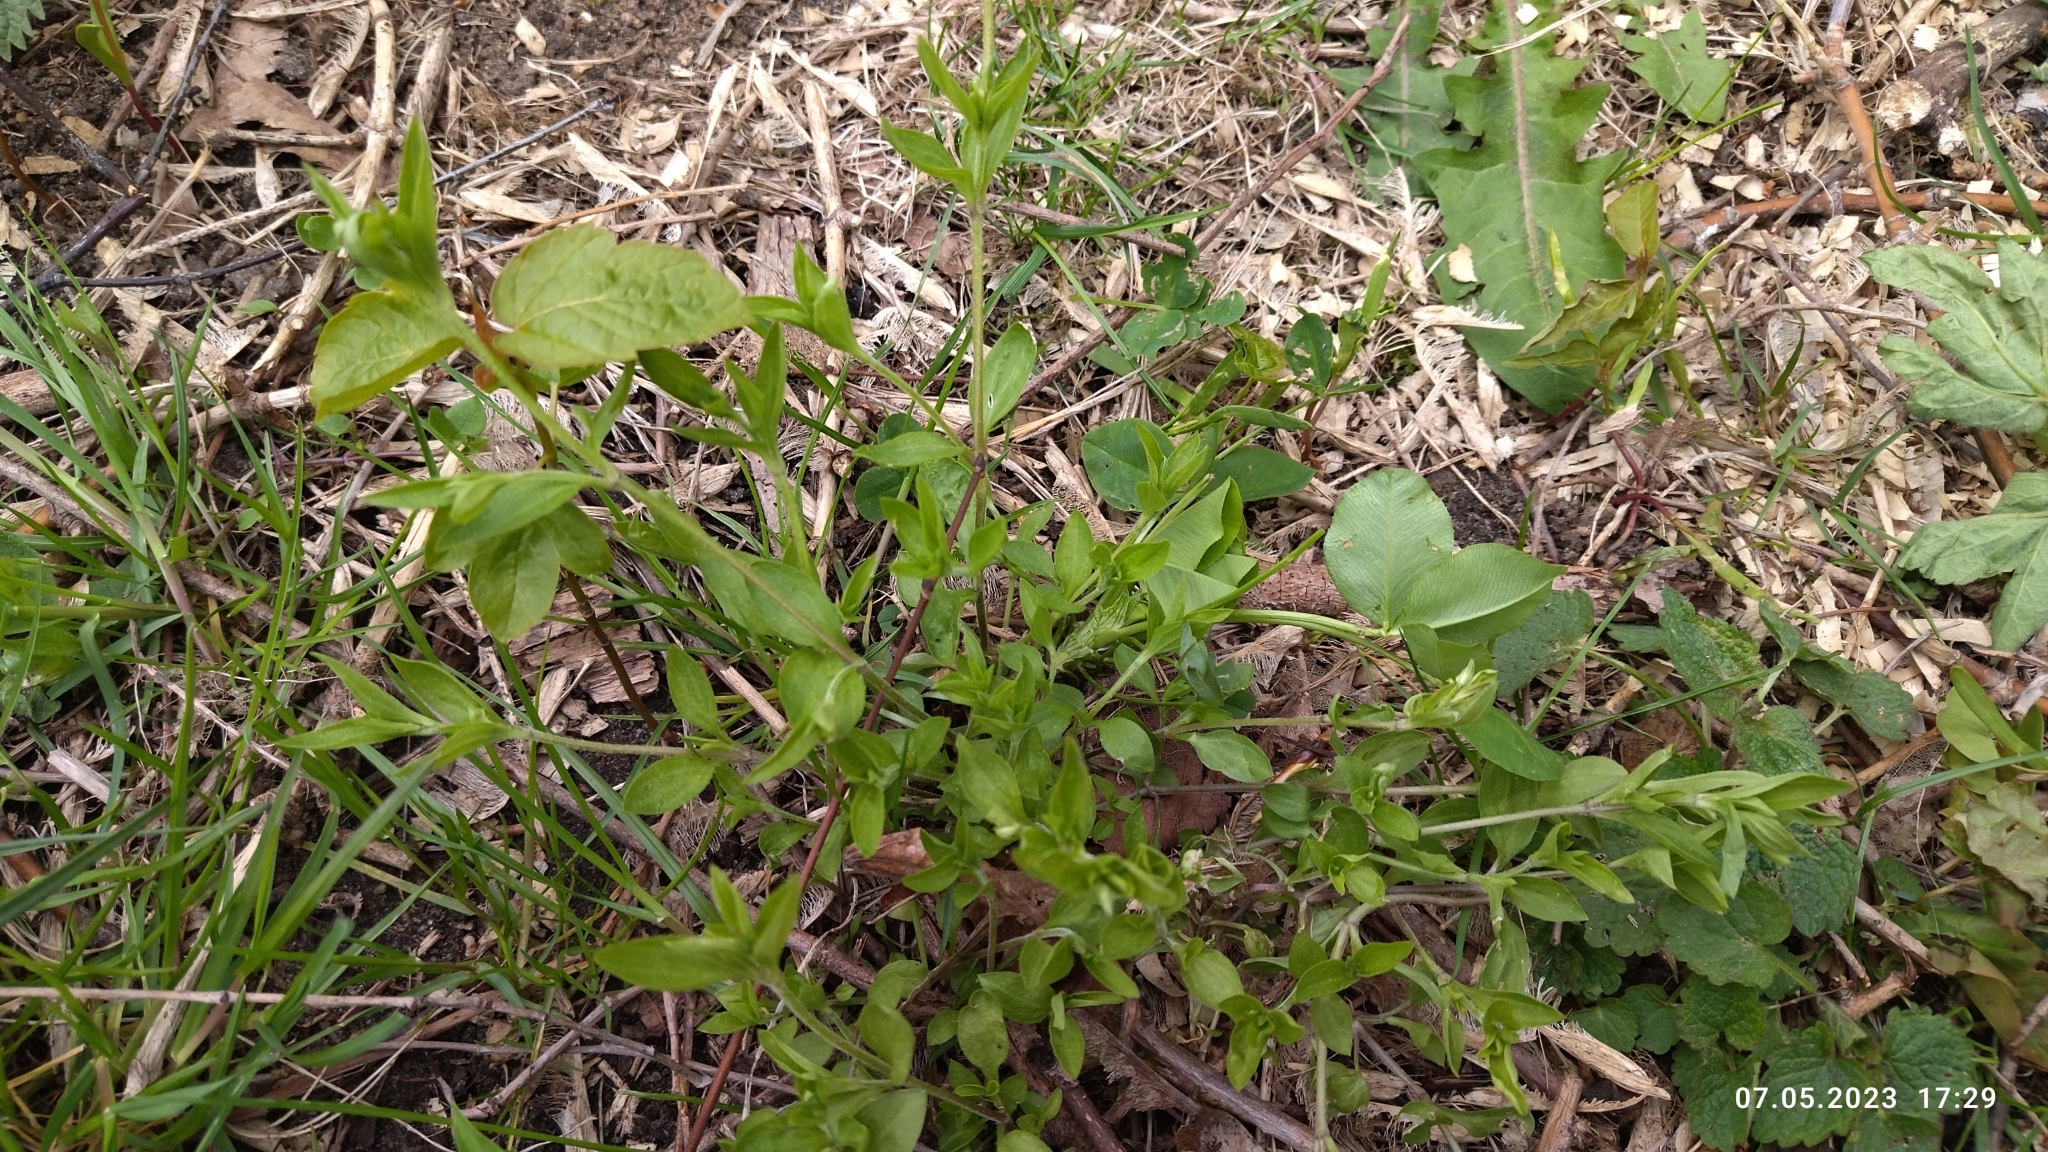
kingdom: Plantae
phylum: Tracheophyta
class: Magnoliopsida
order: Caryophyllales
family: Caryophyllaceae
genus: Moehringia
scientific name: Moehringia trinervia
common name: Three-nerved sandwort
